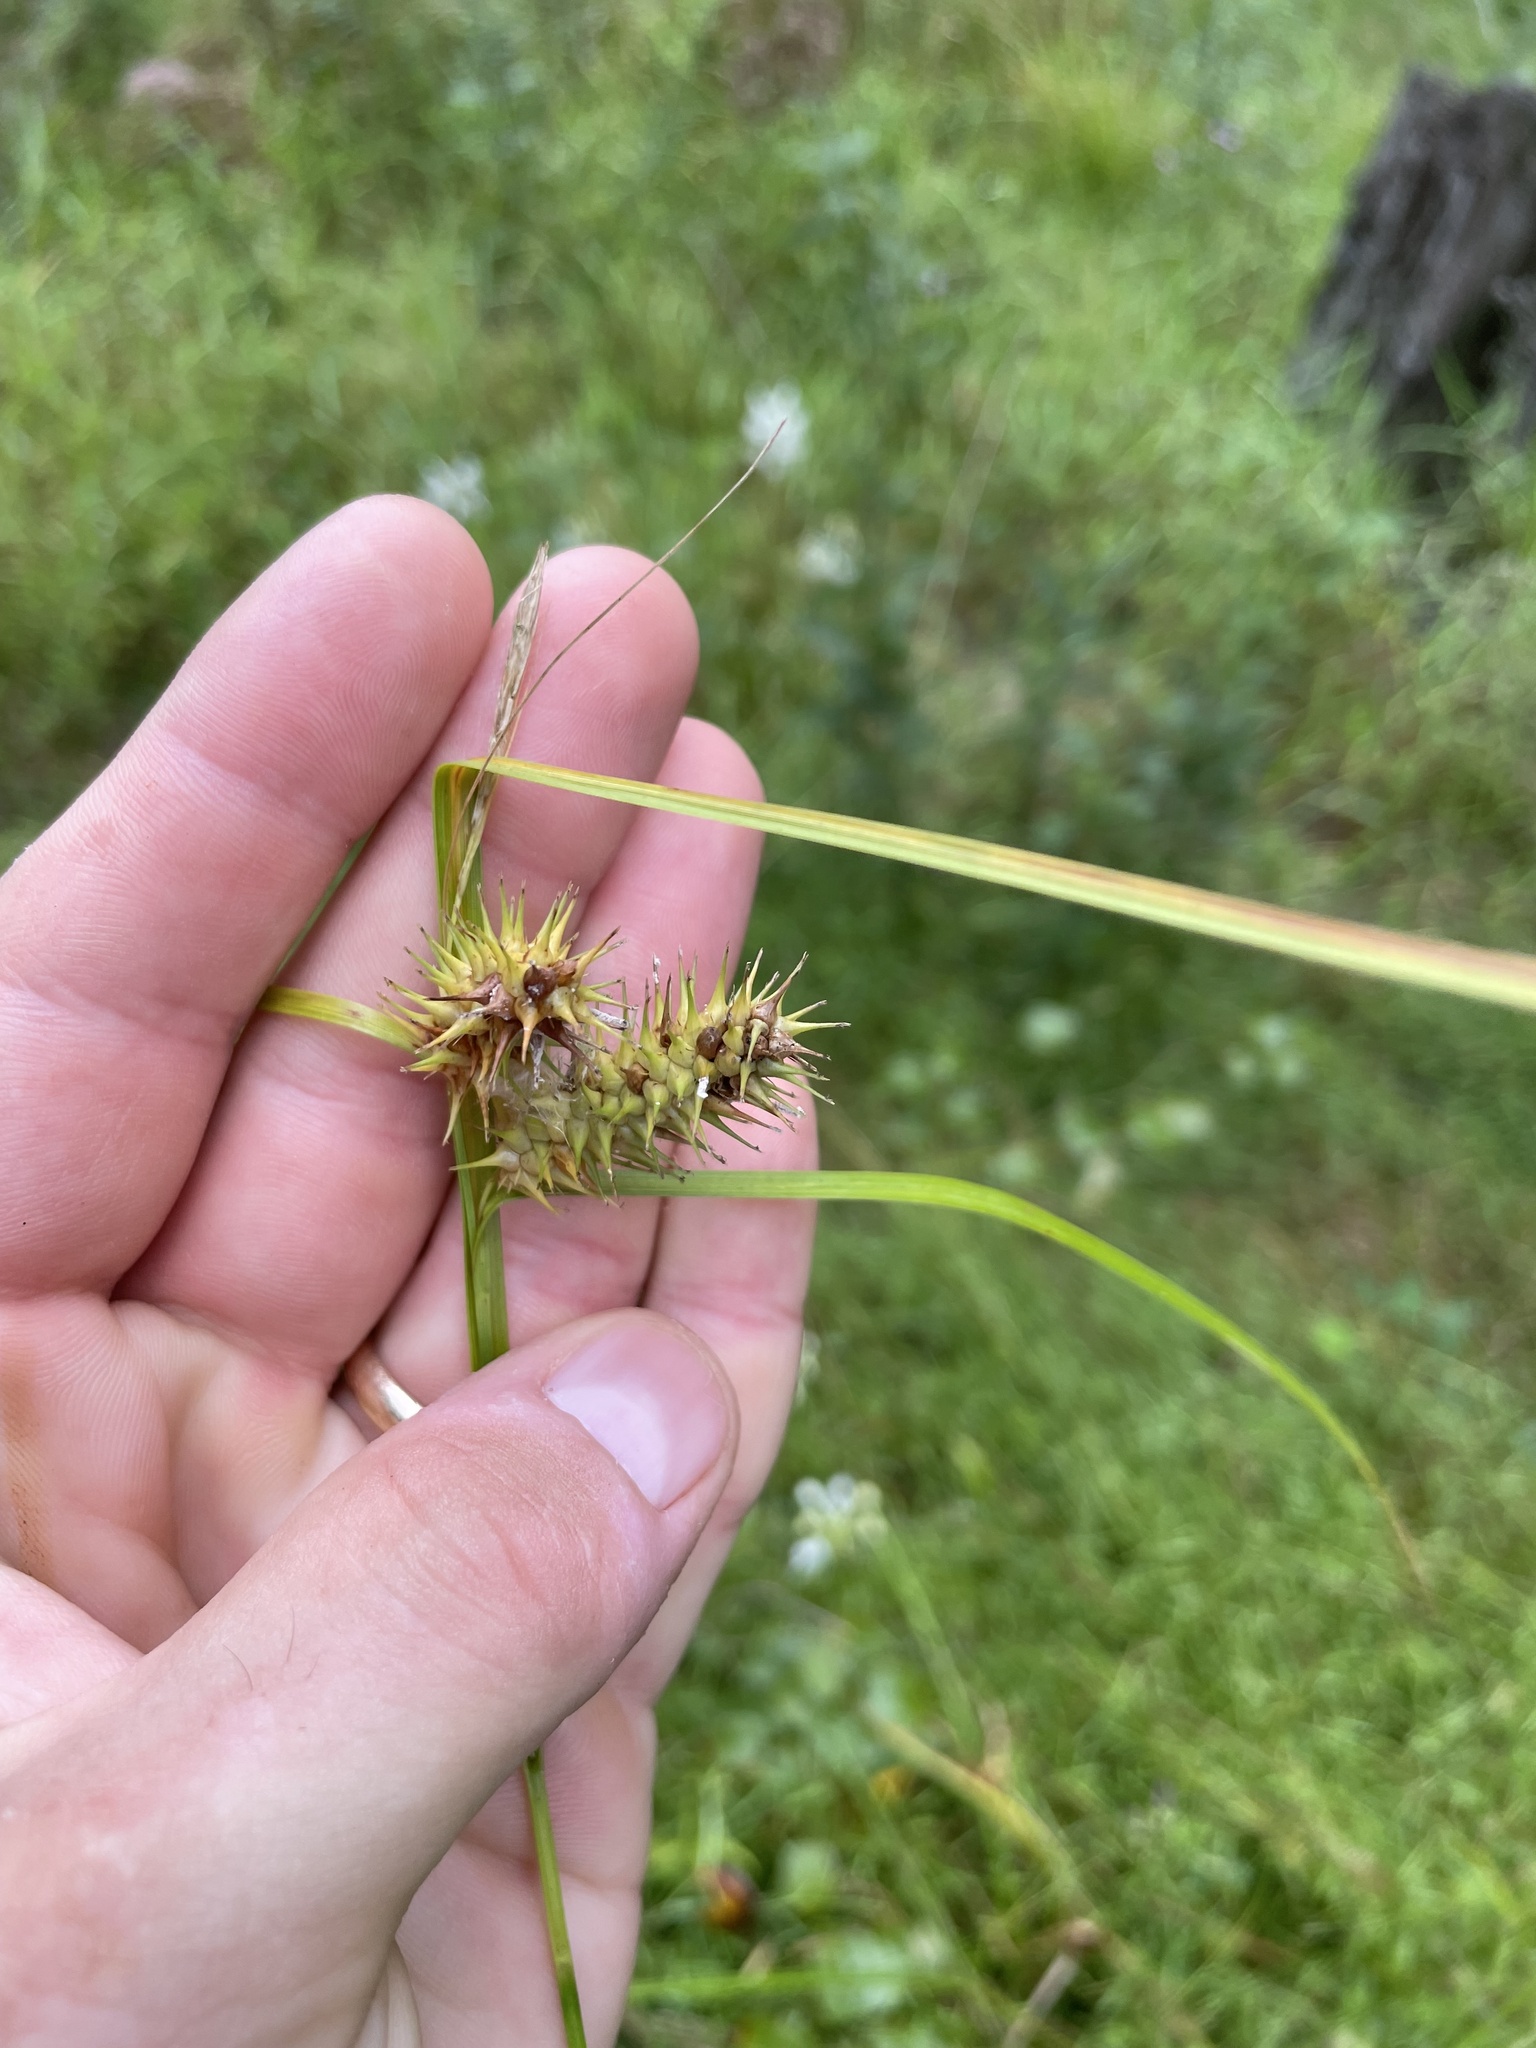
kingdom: Plantae
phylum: Tracheophyta
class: Liliopsida
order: Poales
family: Cyperaceae
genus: Carex
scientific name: Carex lurida
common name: Sallow sedge
